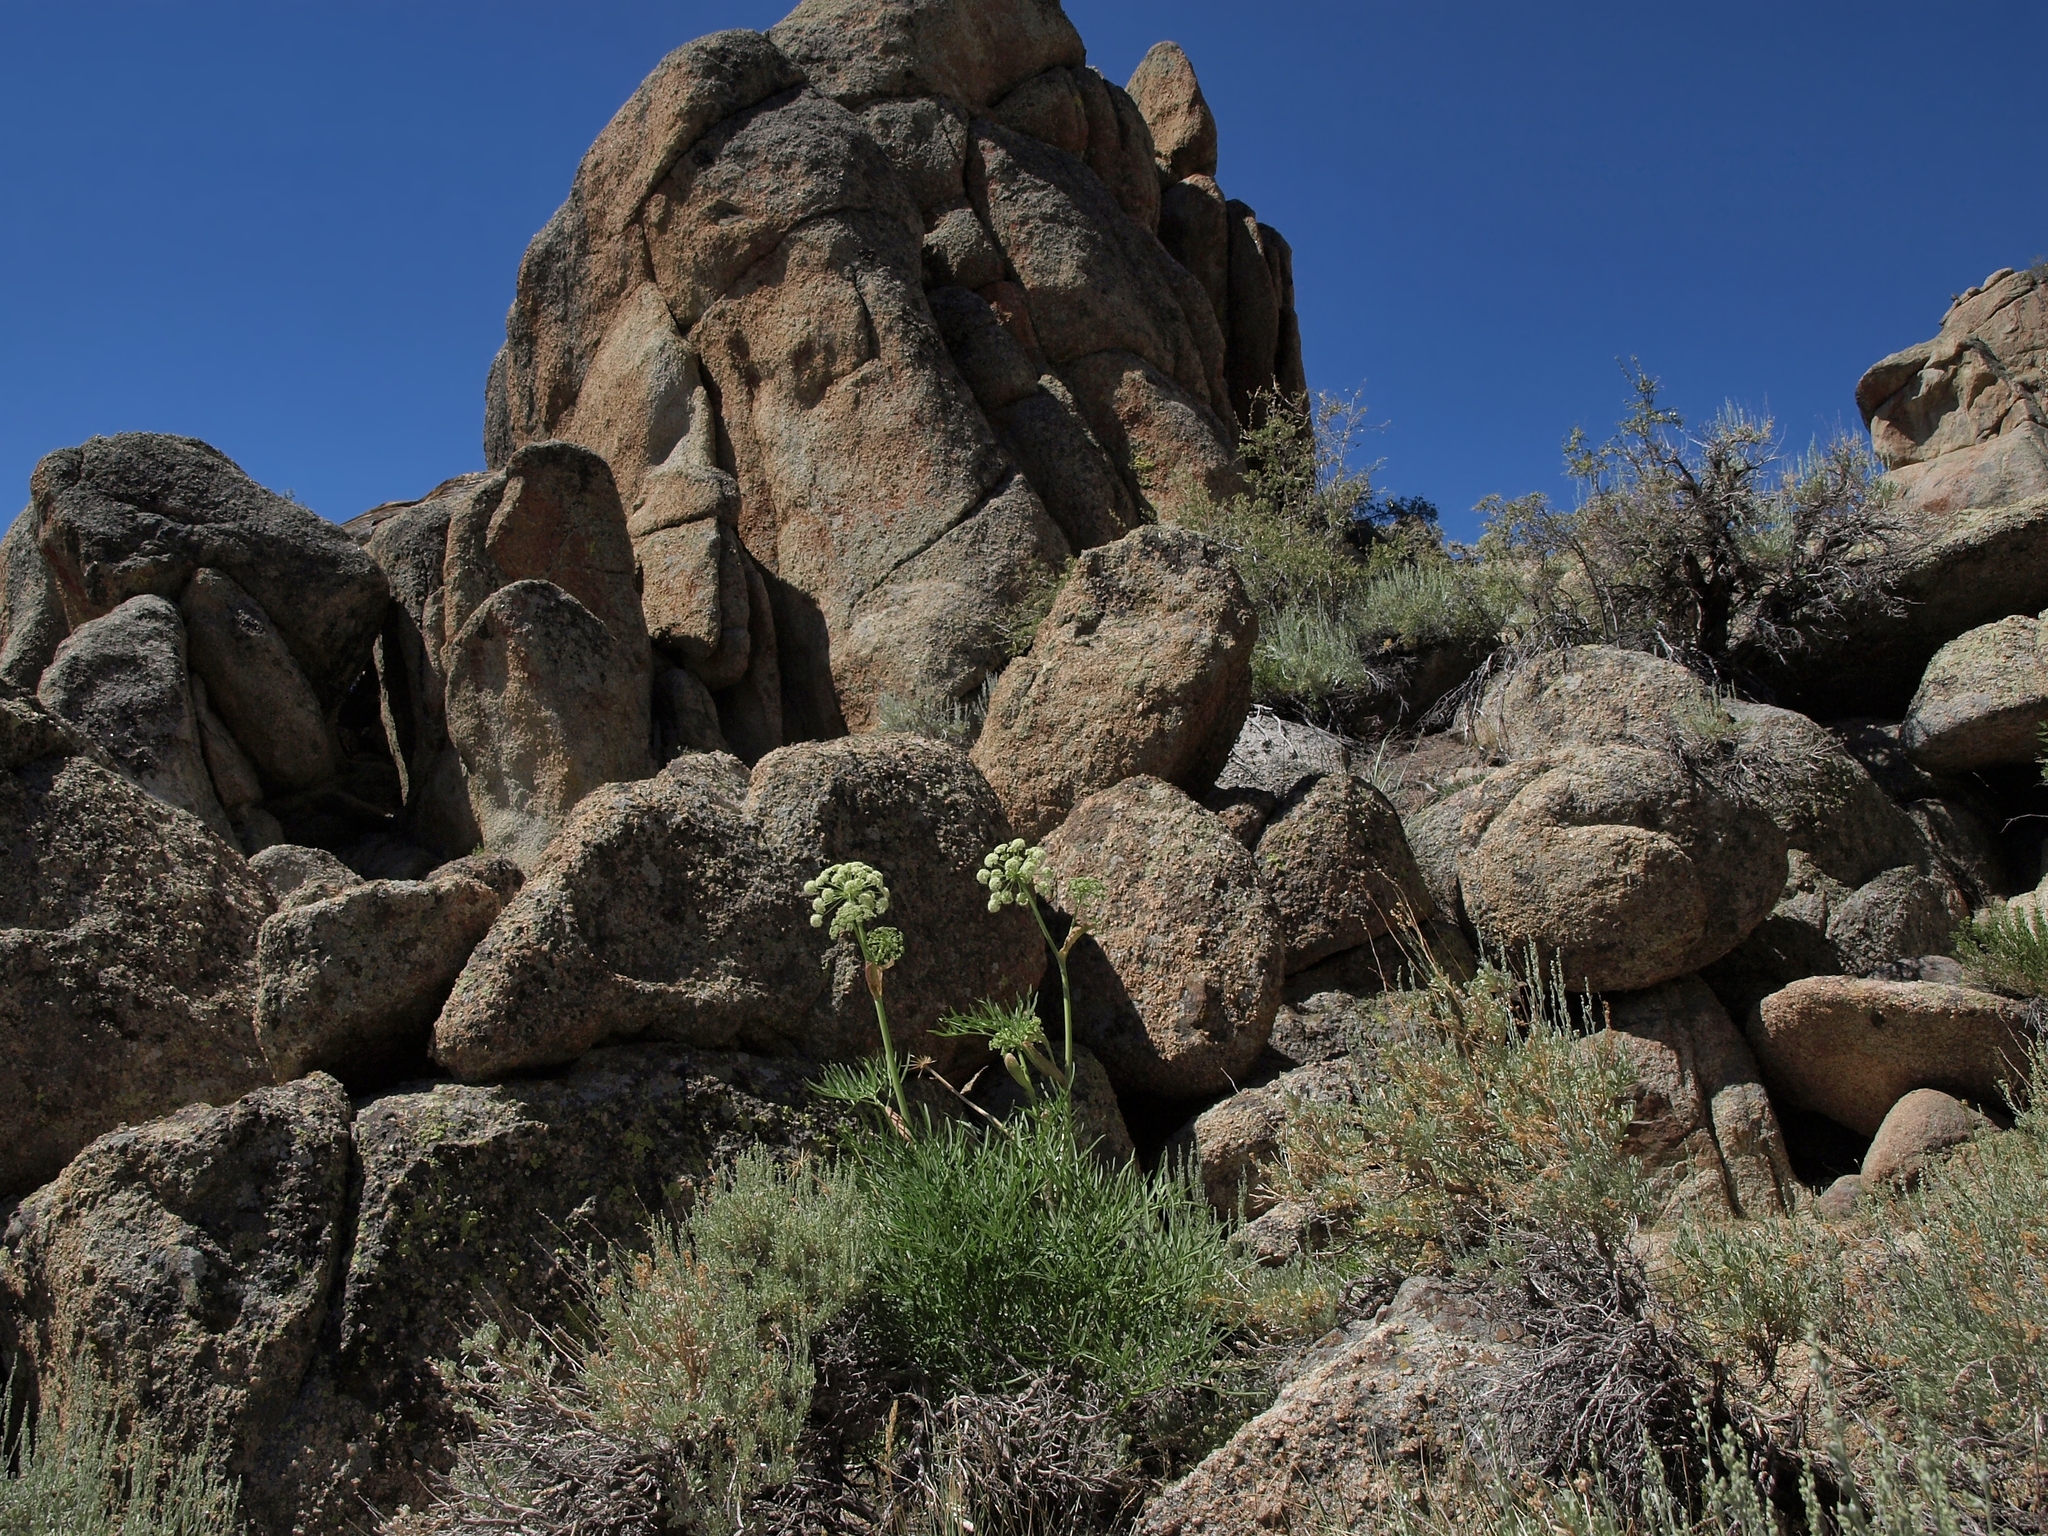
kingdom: Plantae
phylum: Tracheophyta
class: Magnoliopsida
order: Apiales
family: Apiaceae
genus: Angelica
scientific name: Angelica lineariloba
